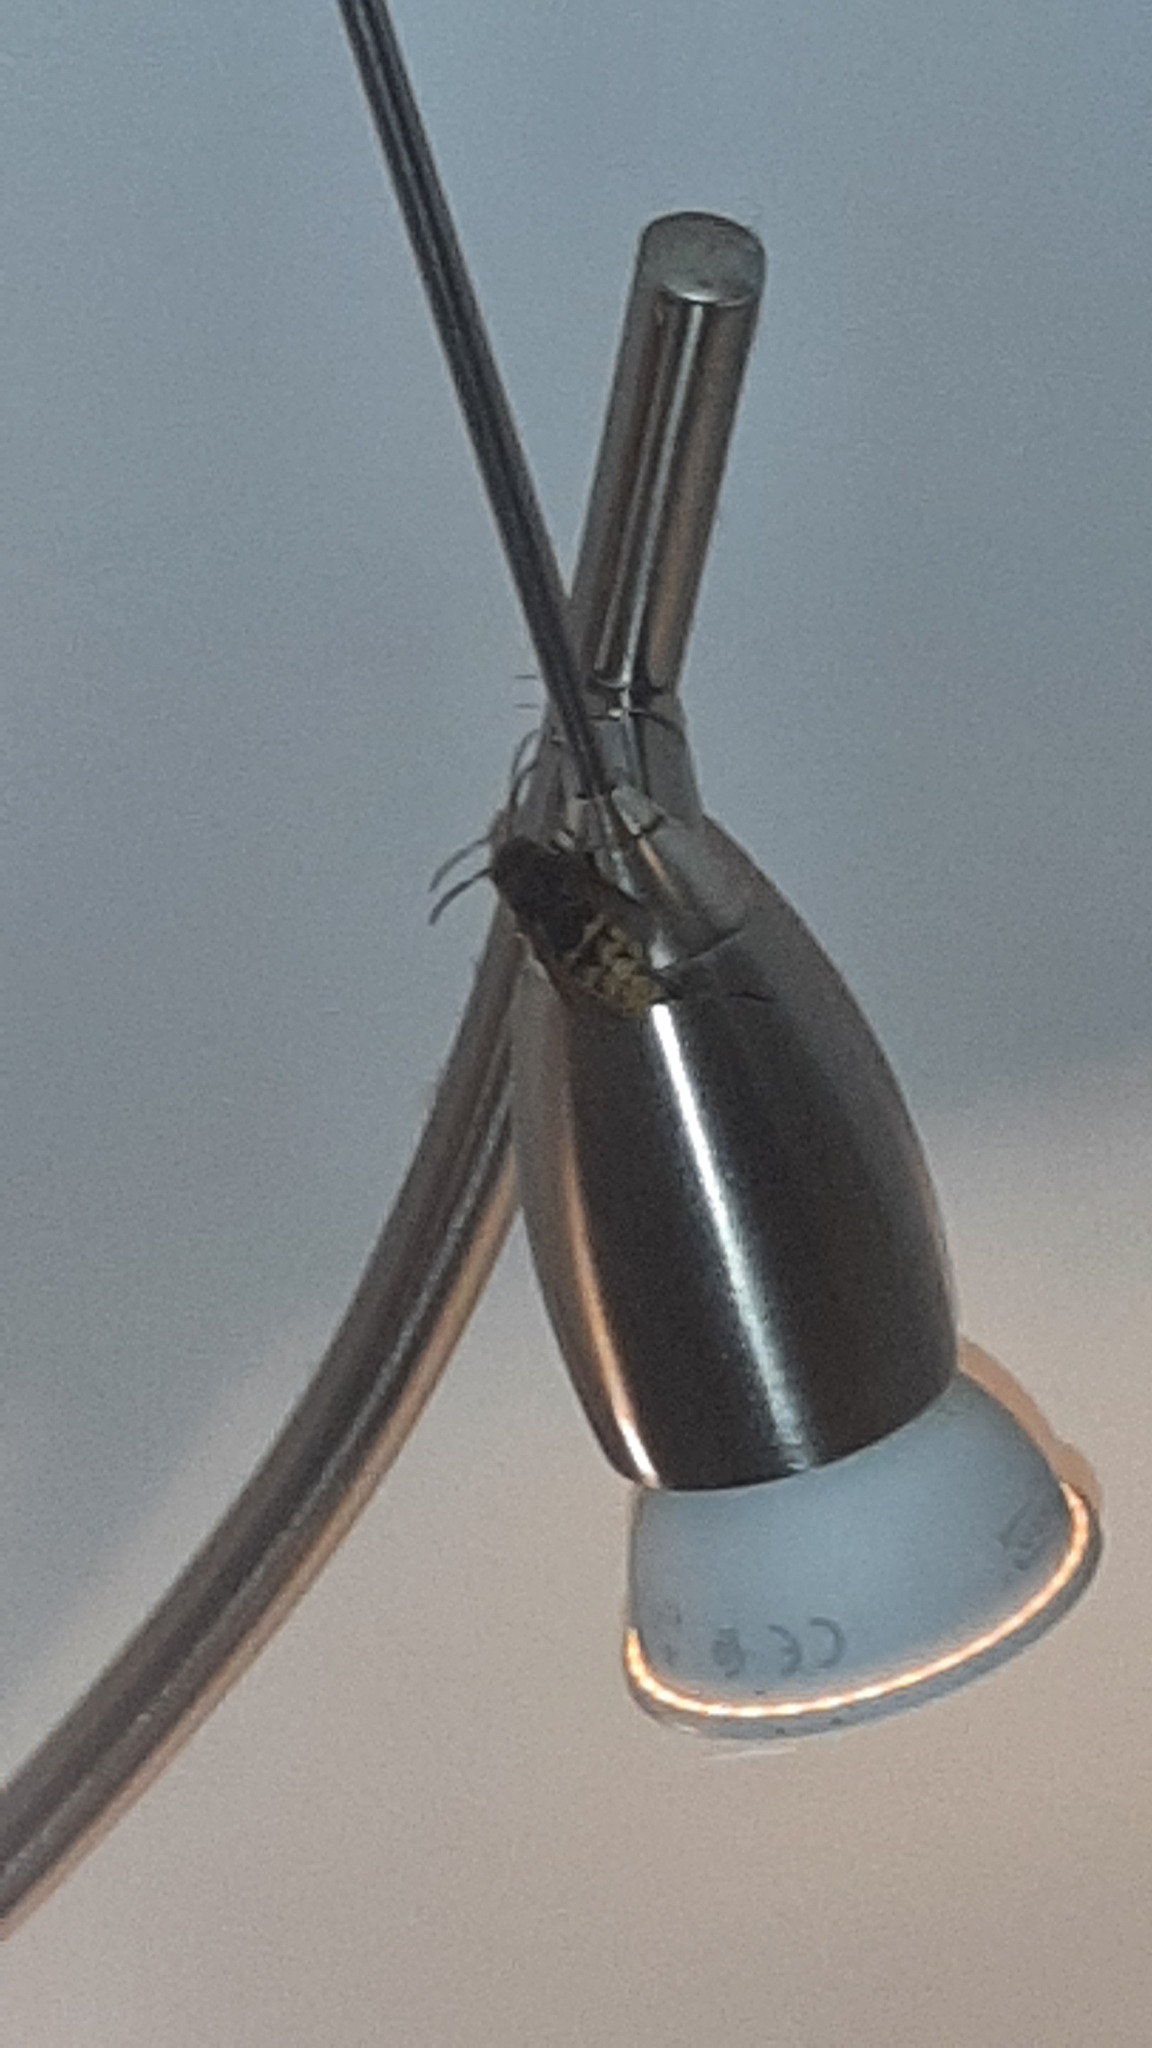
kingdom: Animalia
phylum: Arthropoda
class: Insecta
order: Hymenoptera
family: Vespidae
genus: Vespa
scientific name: Vespa crabro
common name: Hornet
